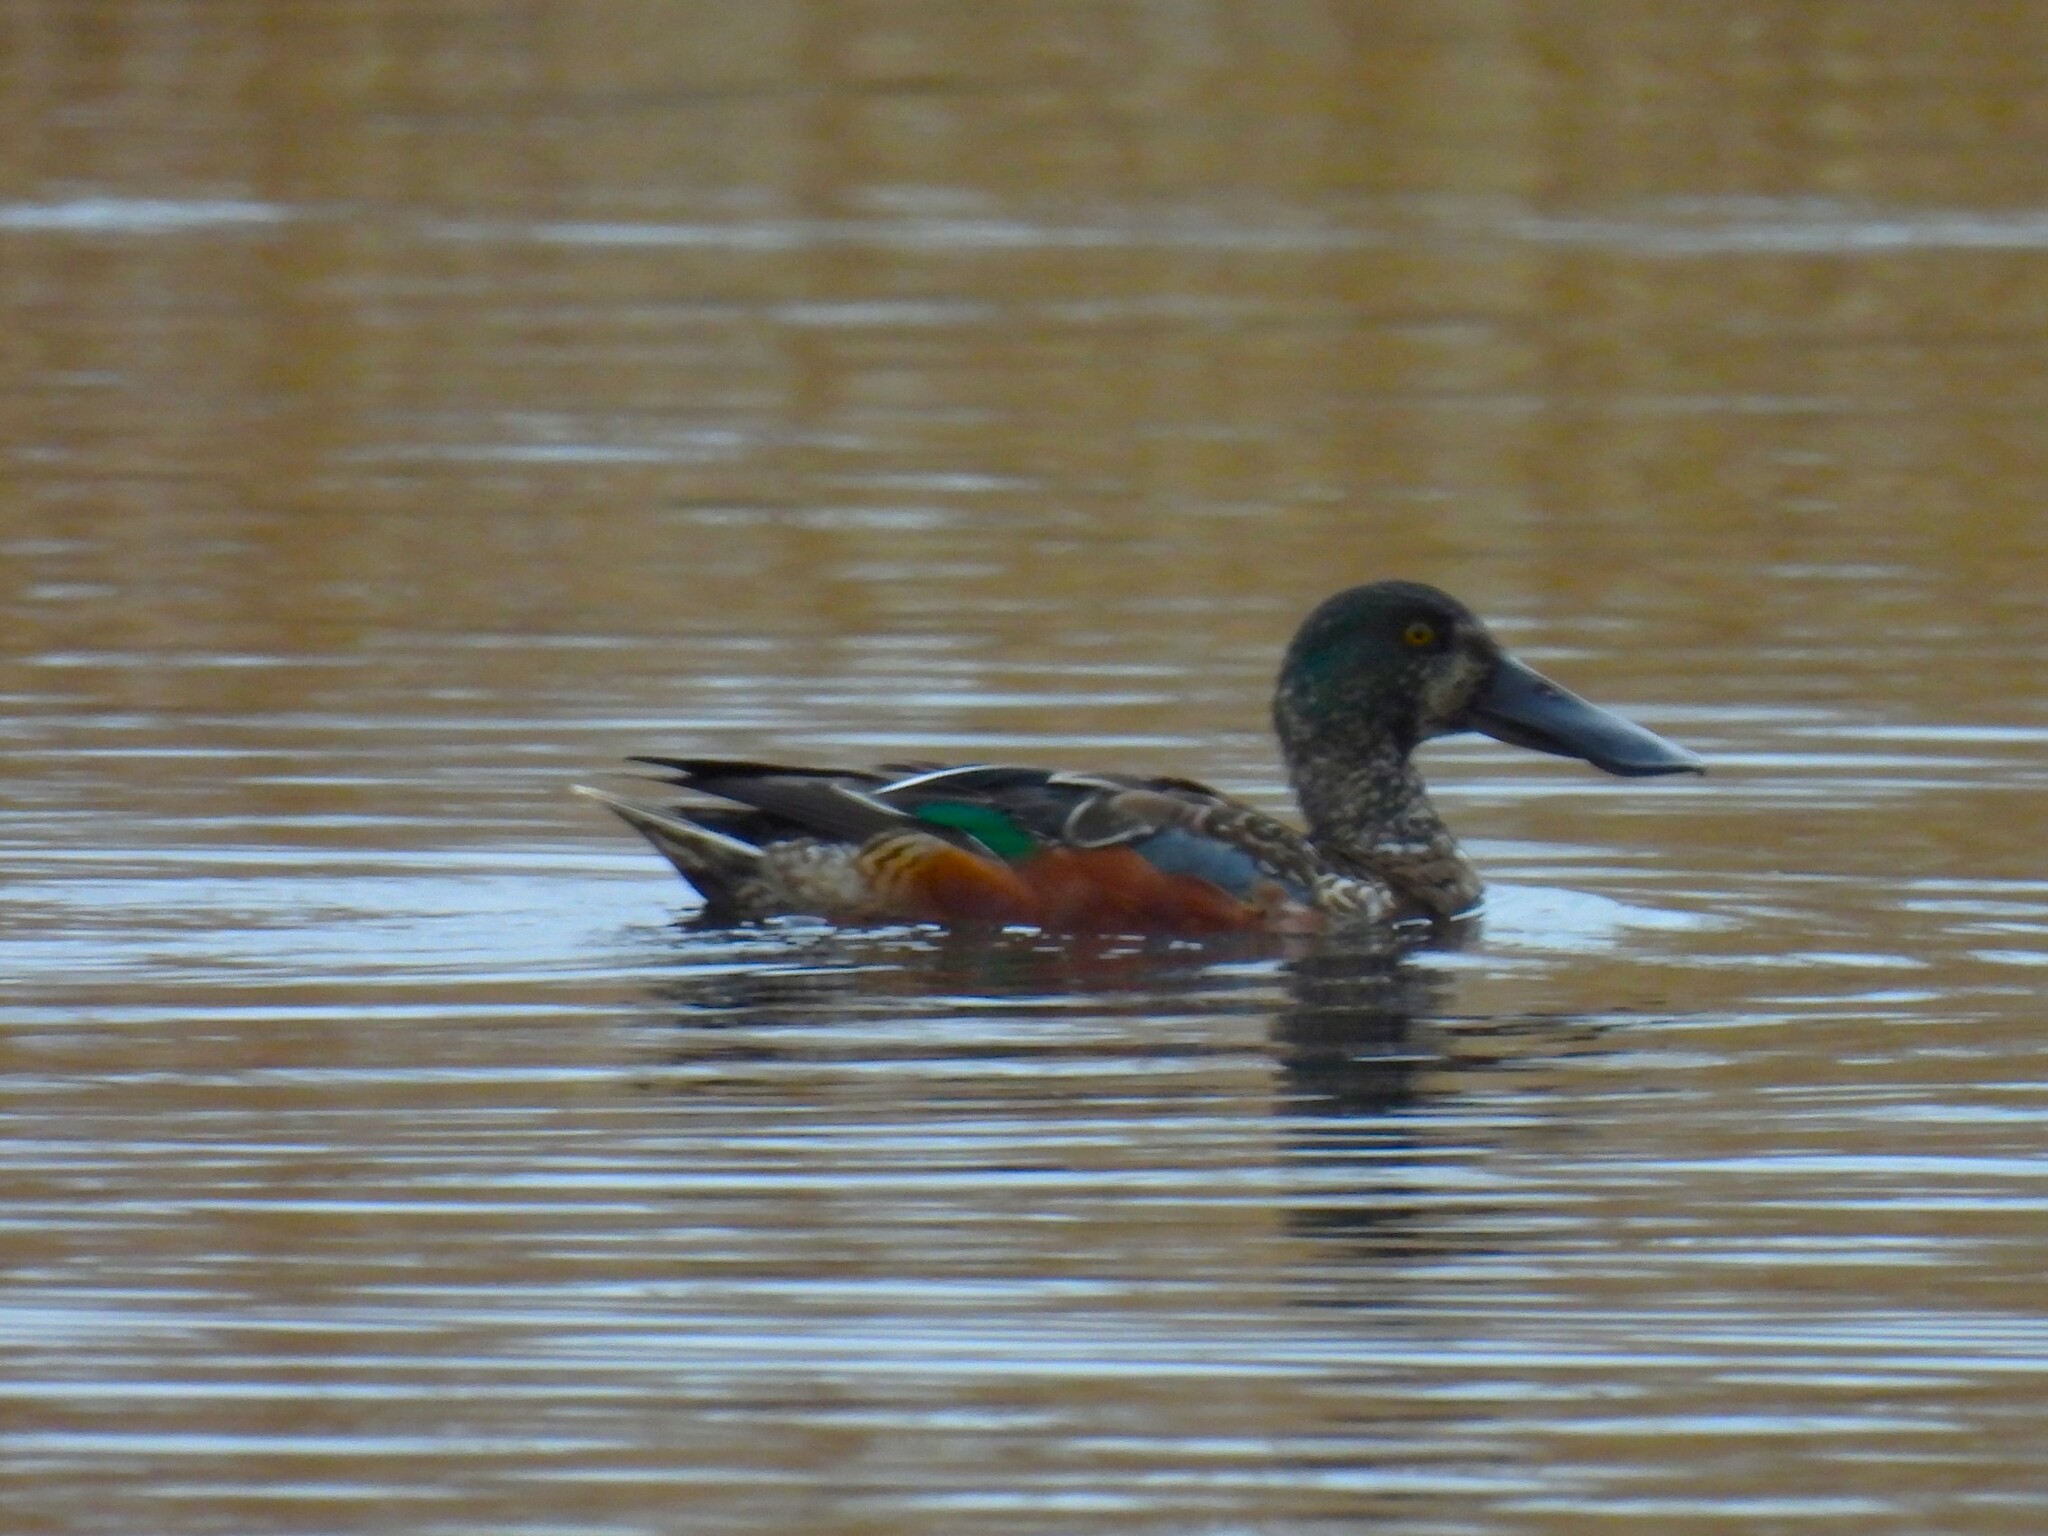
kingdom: Animalia
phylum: Chordata
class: Aves
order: Anseriformes
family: Anatidae
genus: Spatula
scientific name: Spatula clypeata
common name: Northern shoveler
